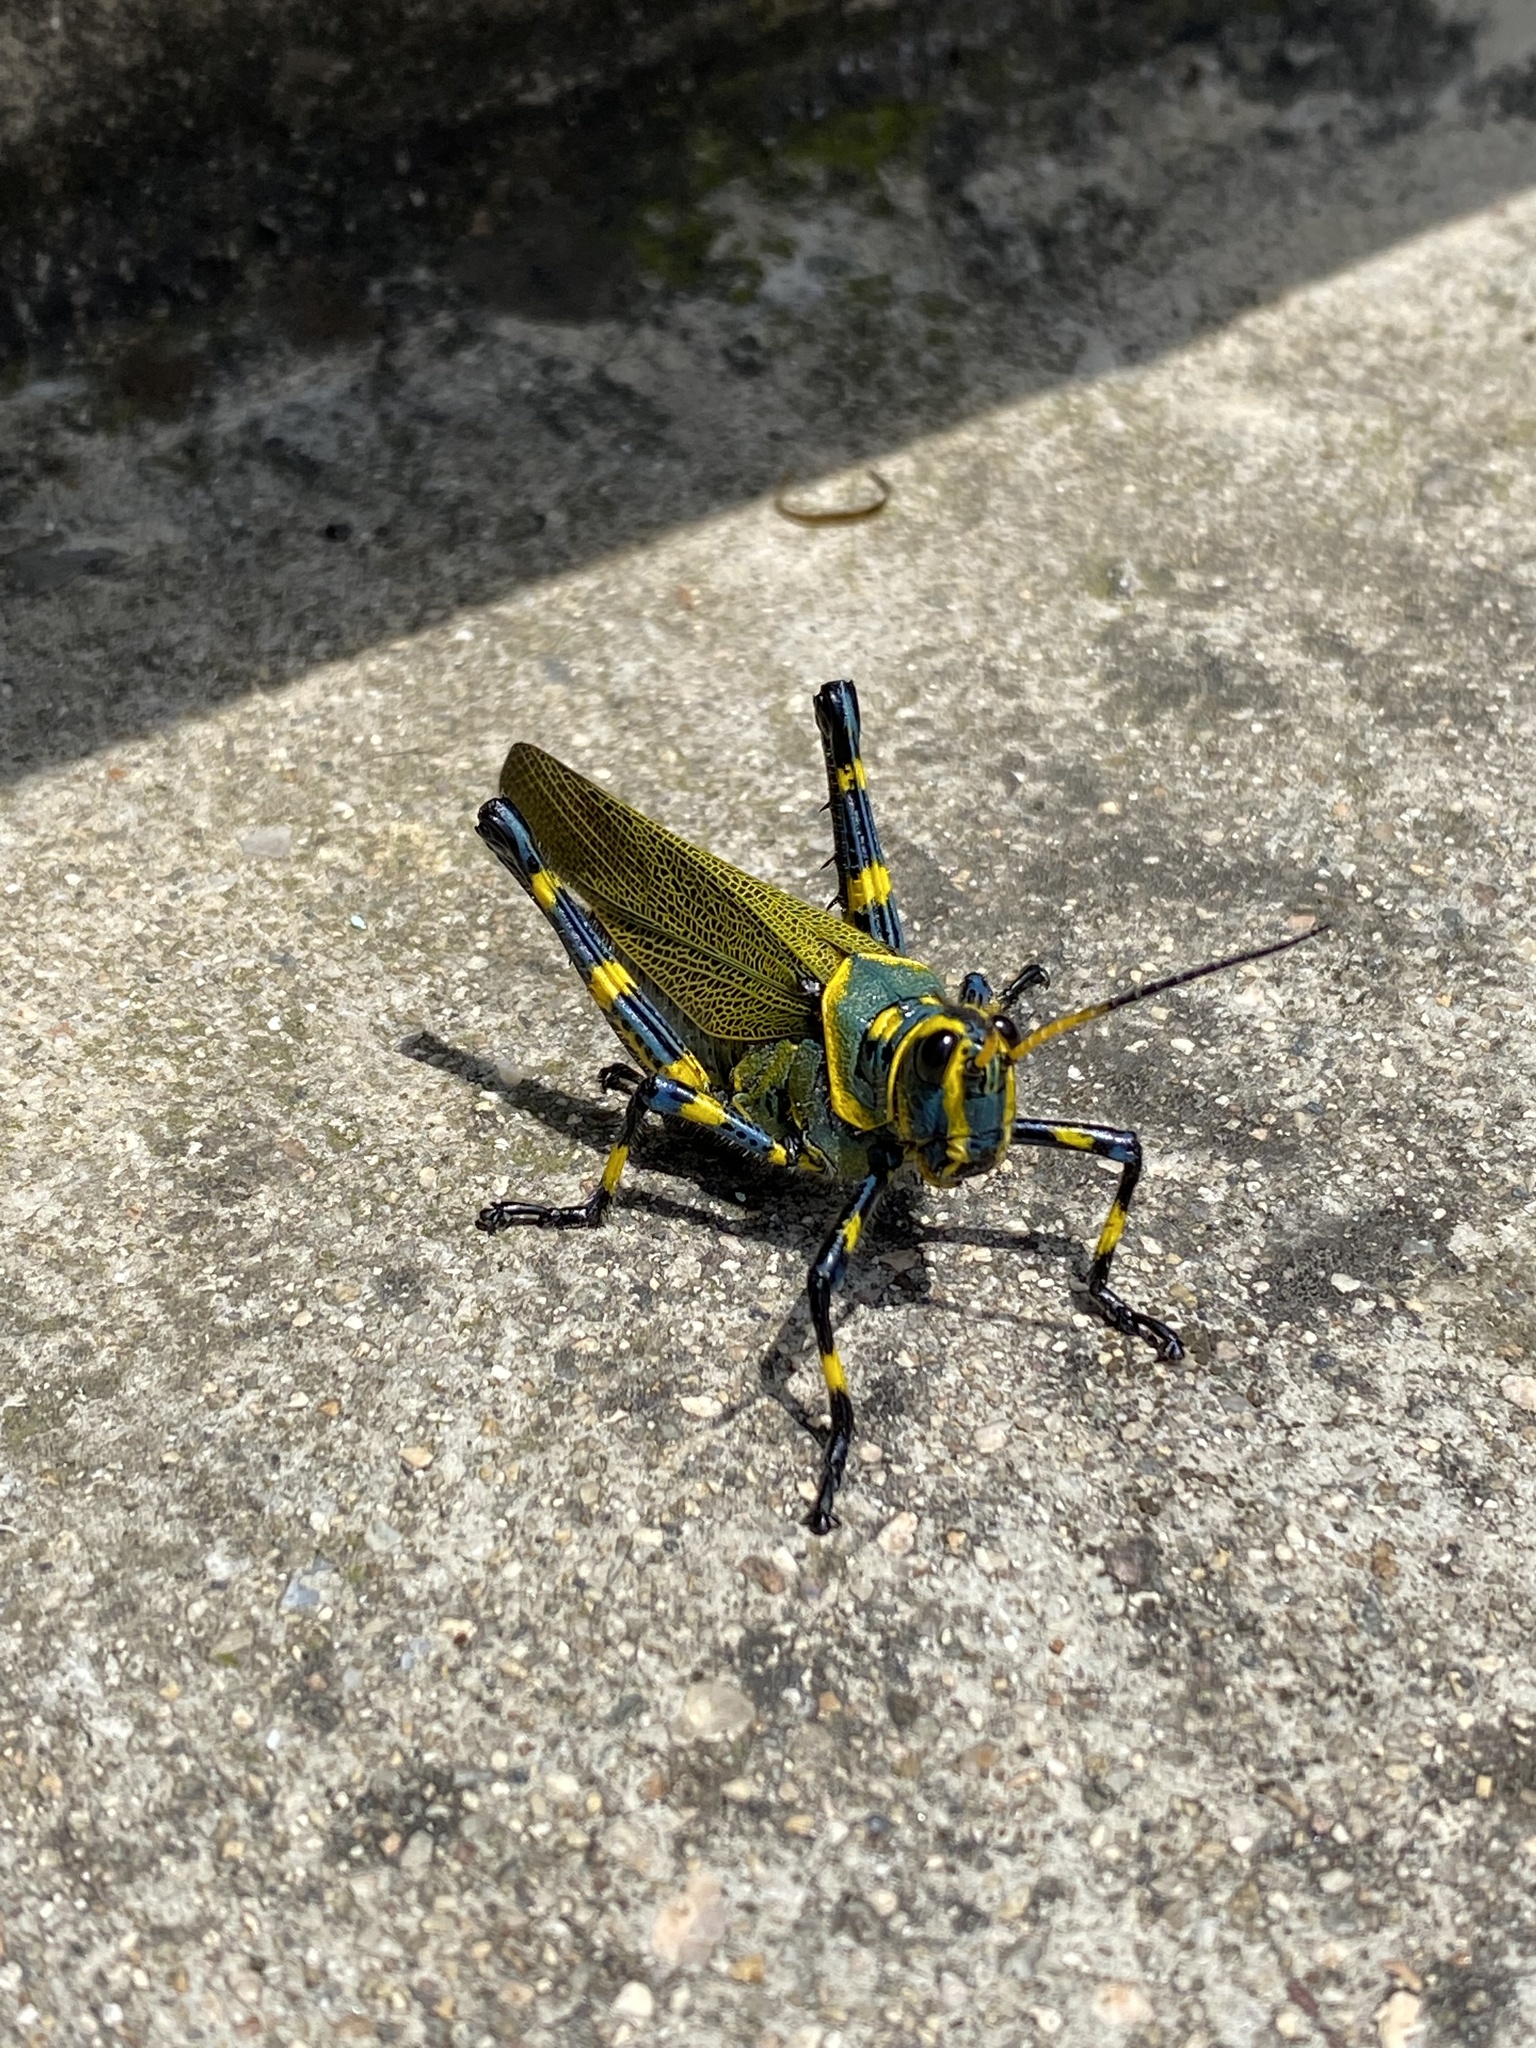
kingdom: Animalia
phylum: Arthropoda
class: Insecta
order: Orthoptera
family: Romaleidae
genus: Chromacris
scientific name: Chromacris colorata
